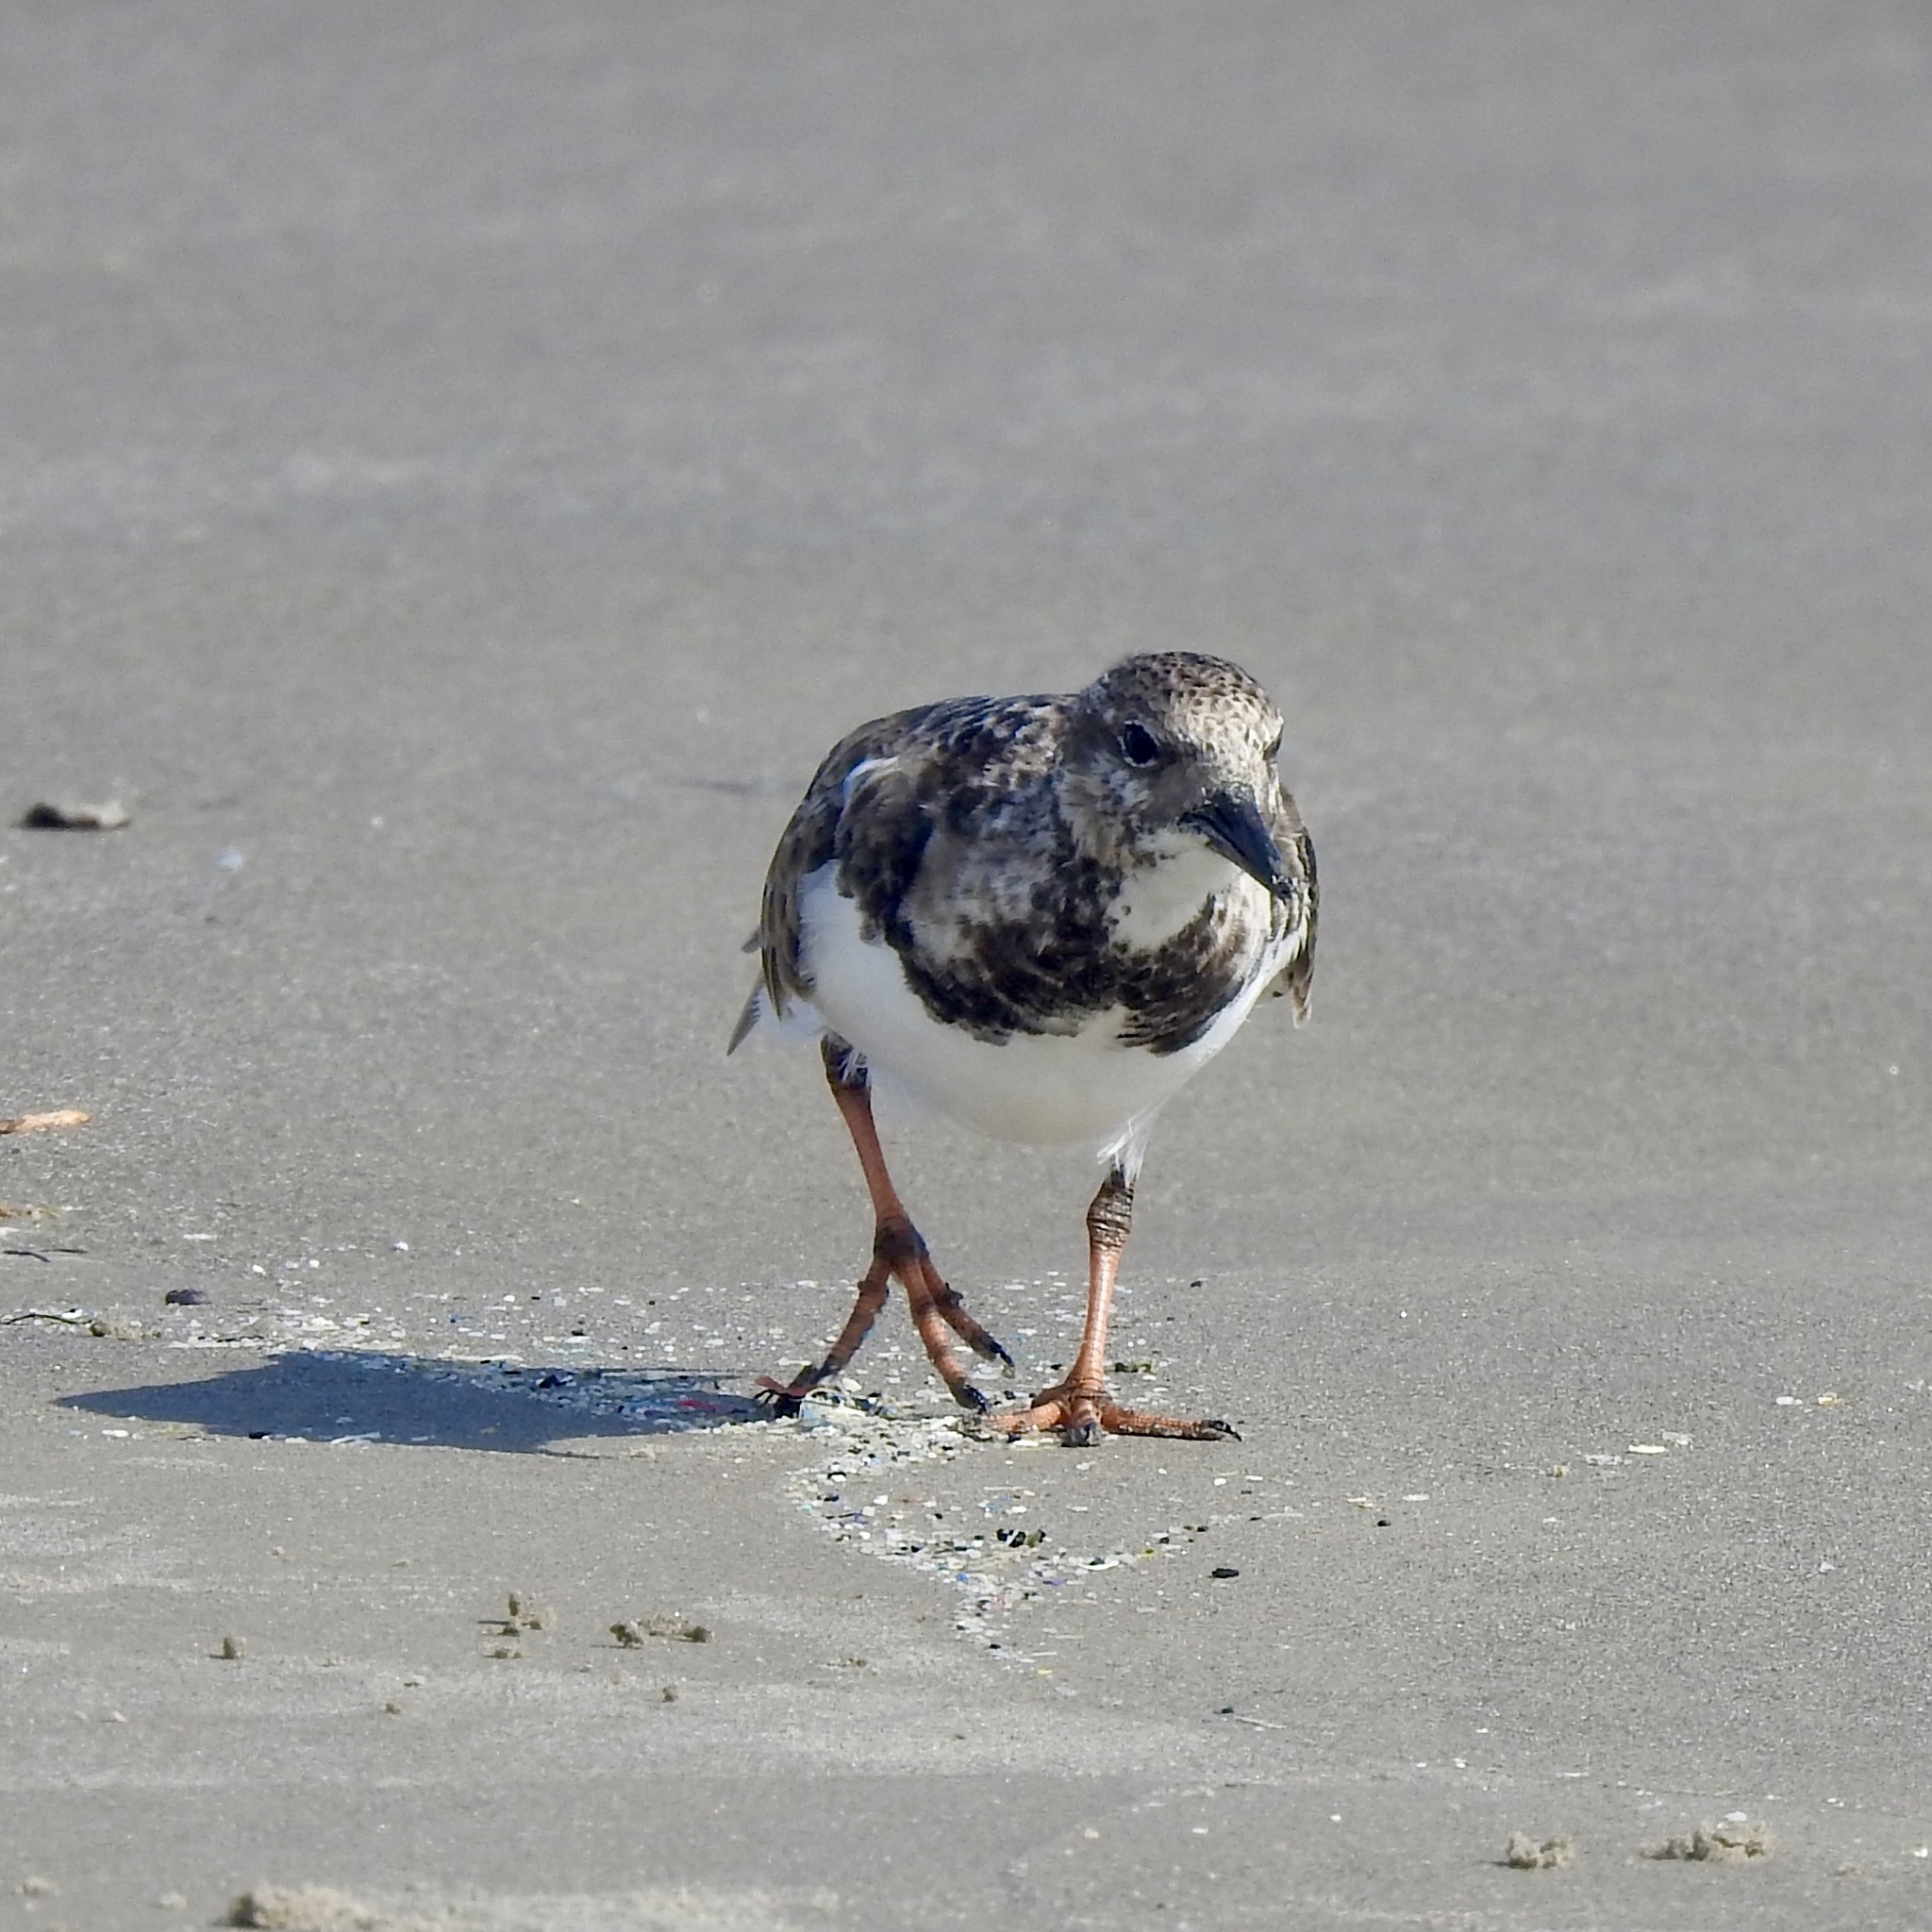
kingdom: Animalia
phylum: Chordata
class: Aves
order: Charadriiformes
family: Scolopacidae
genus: Arenaria
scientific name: Arenaria interpres
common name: Ruddy turnstone
